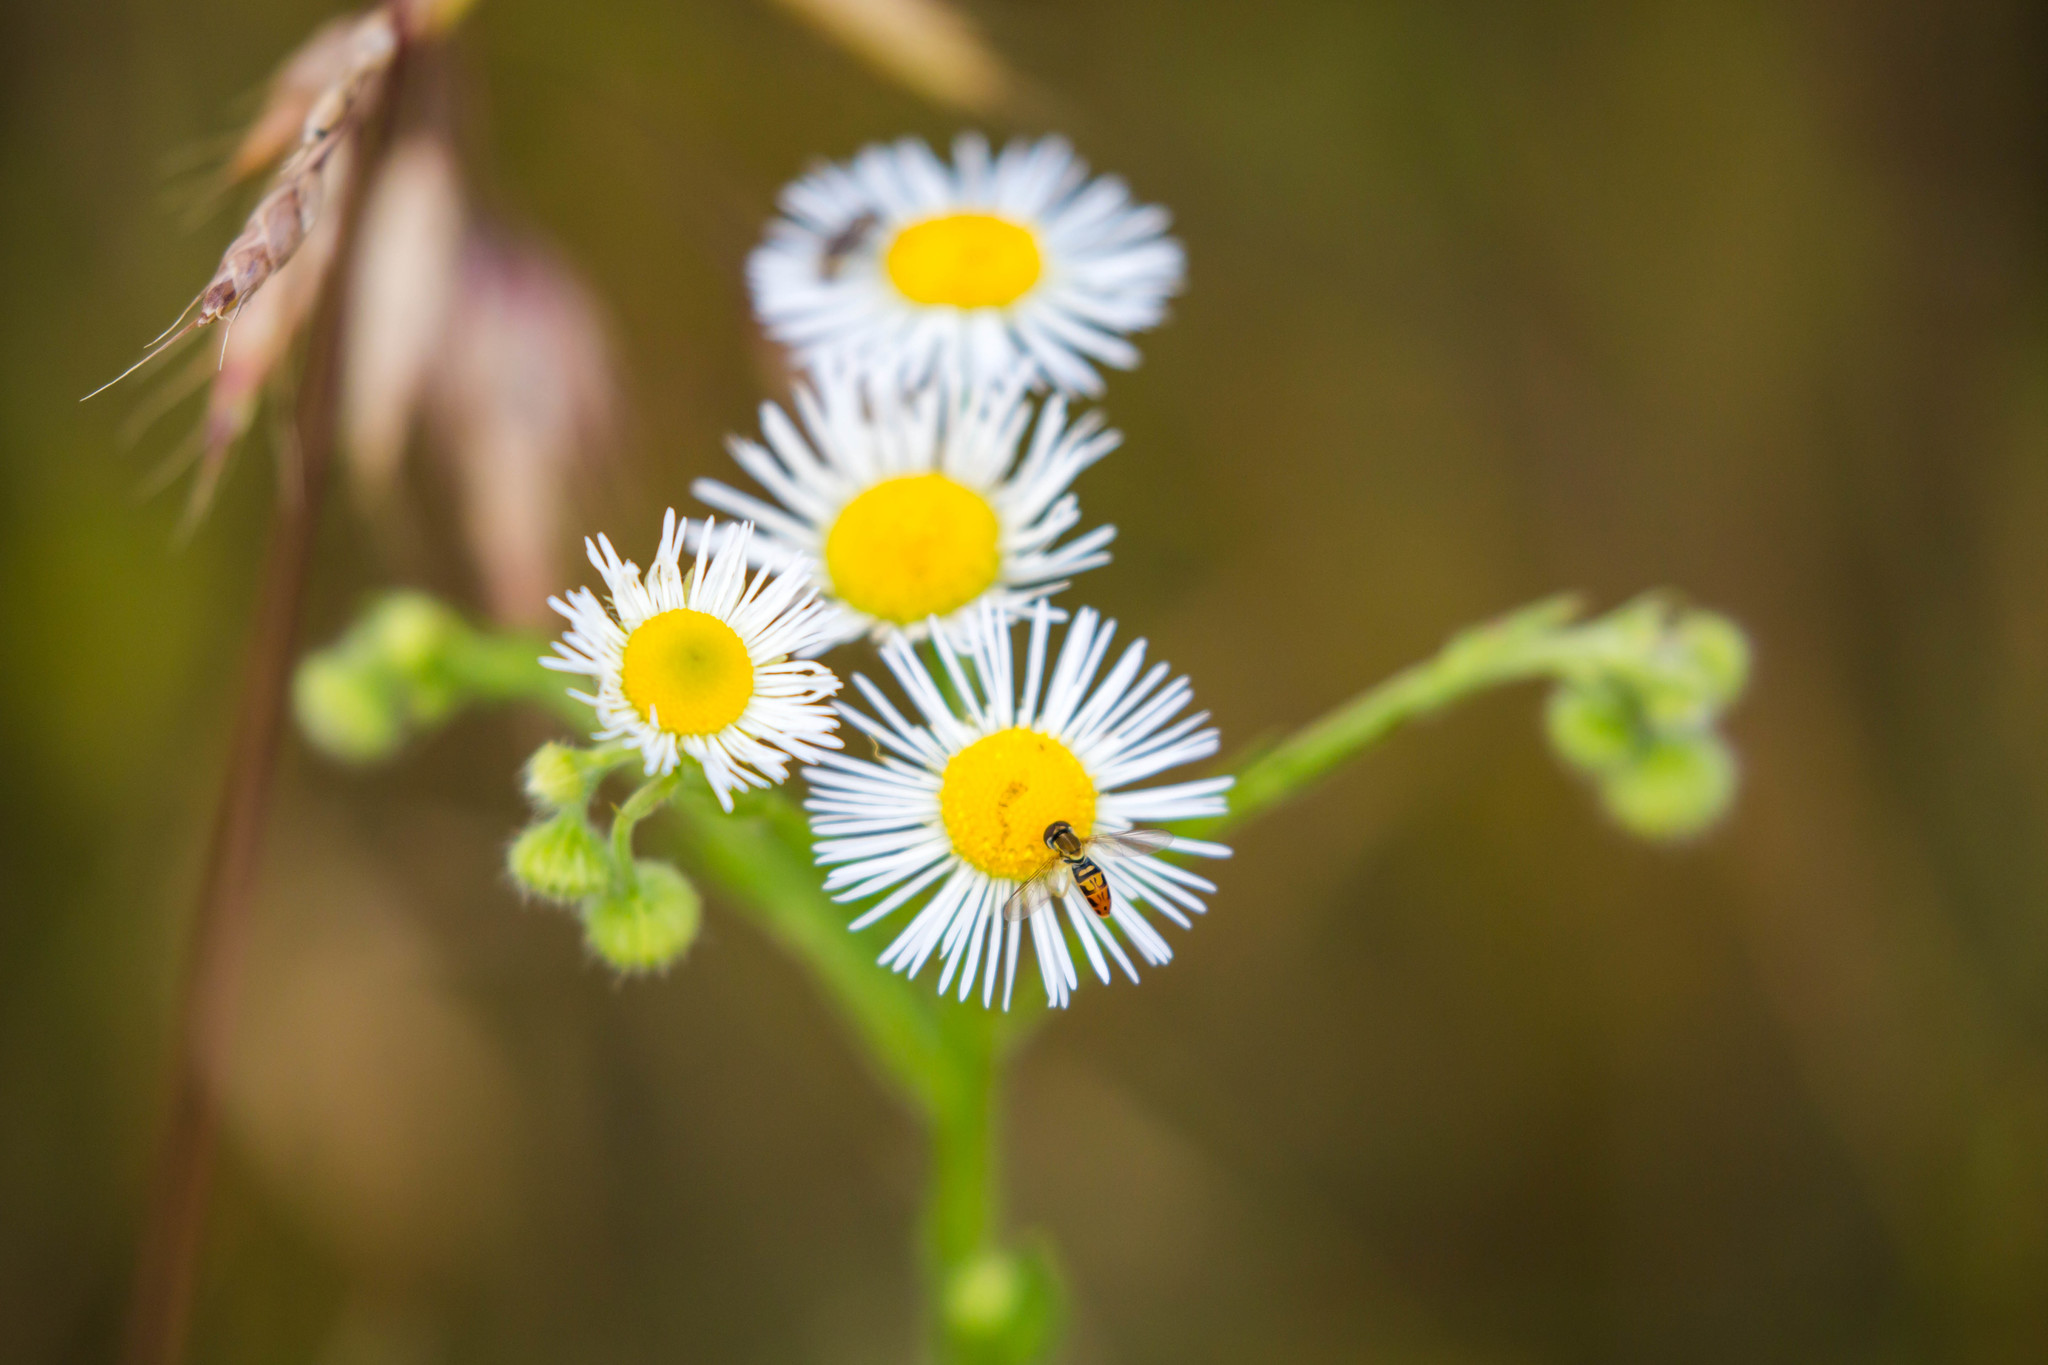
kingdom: Animalia
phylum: Arthropoda
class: Insecta
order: Diptera
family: Syrphidae
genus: Toxomerus
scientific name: Toxomerus marginatus
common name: Syrphid fly
